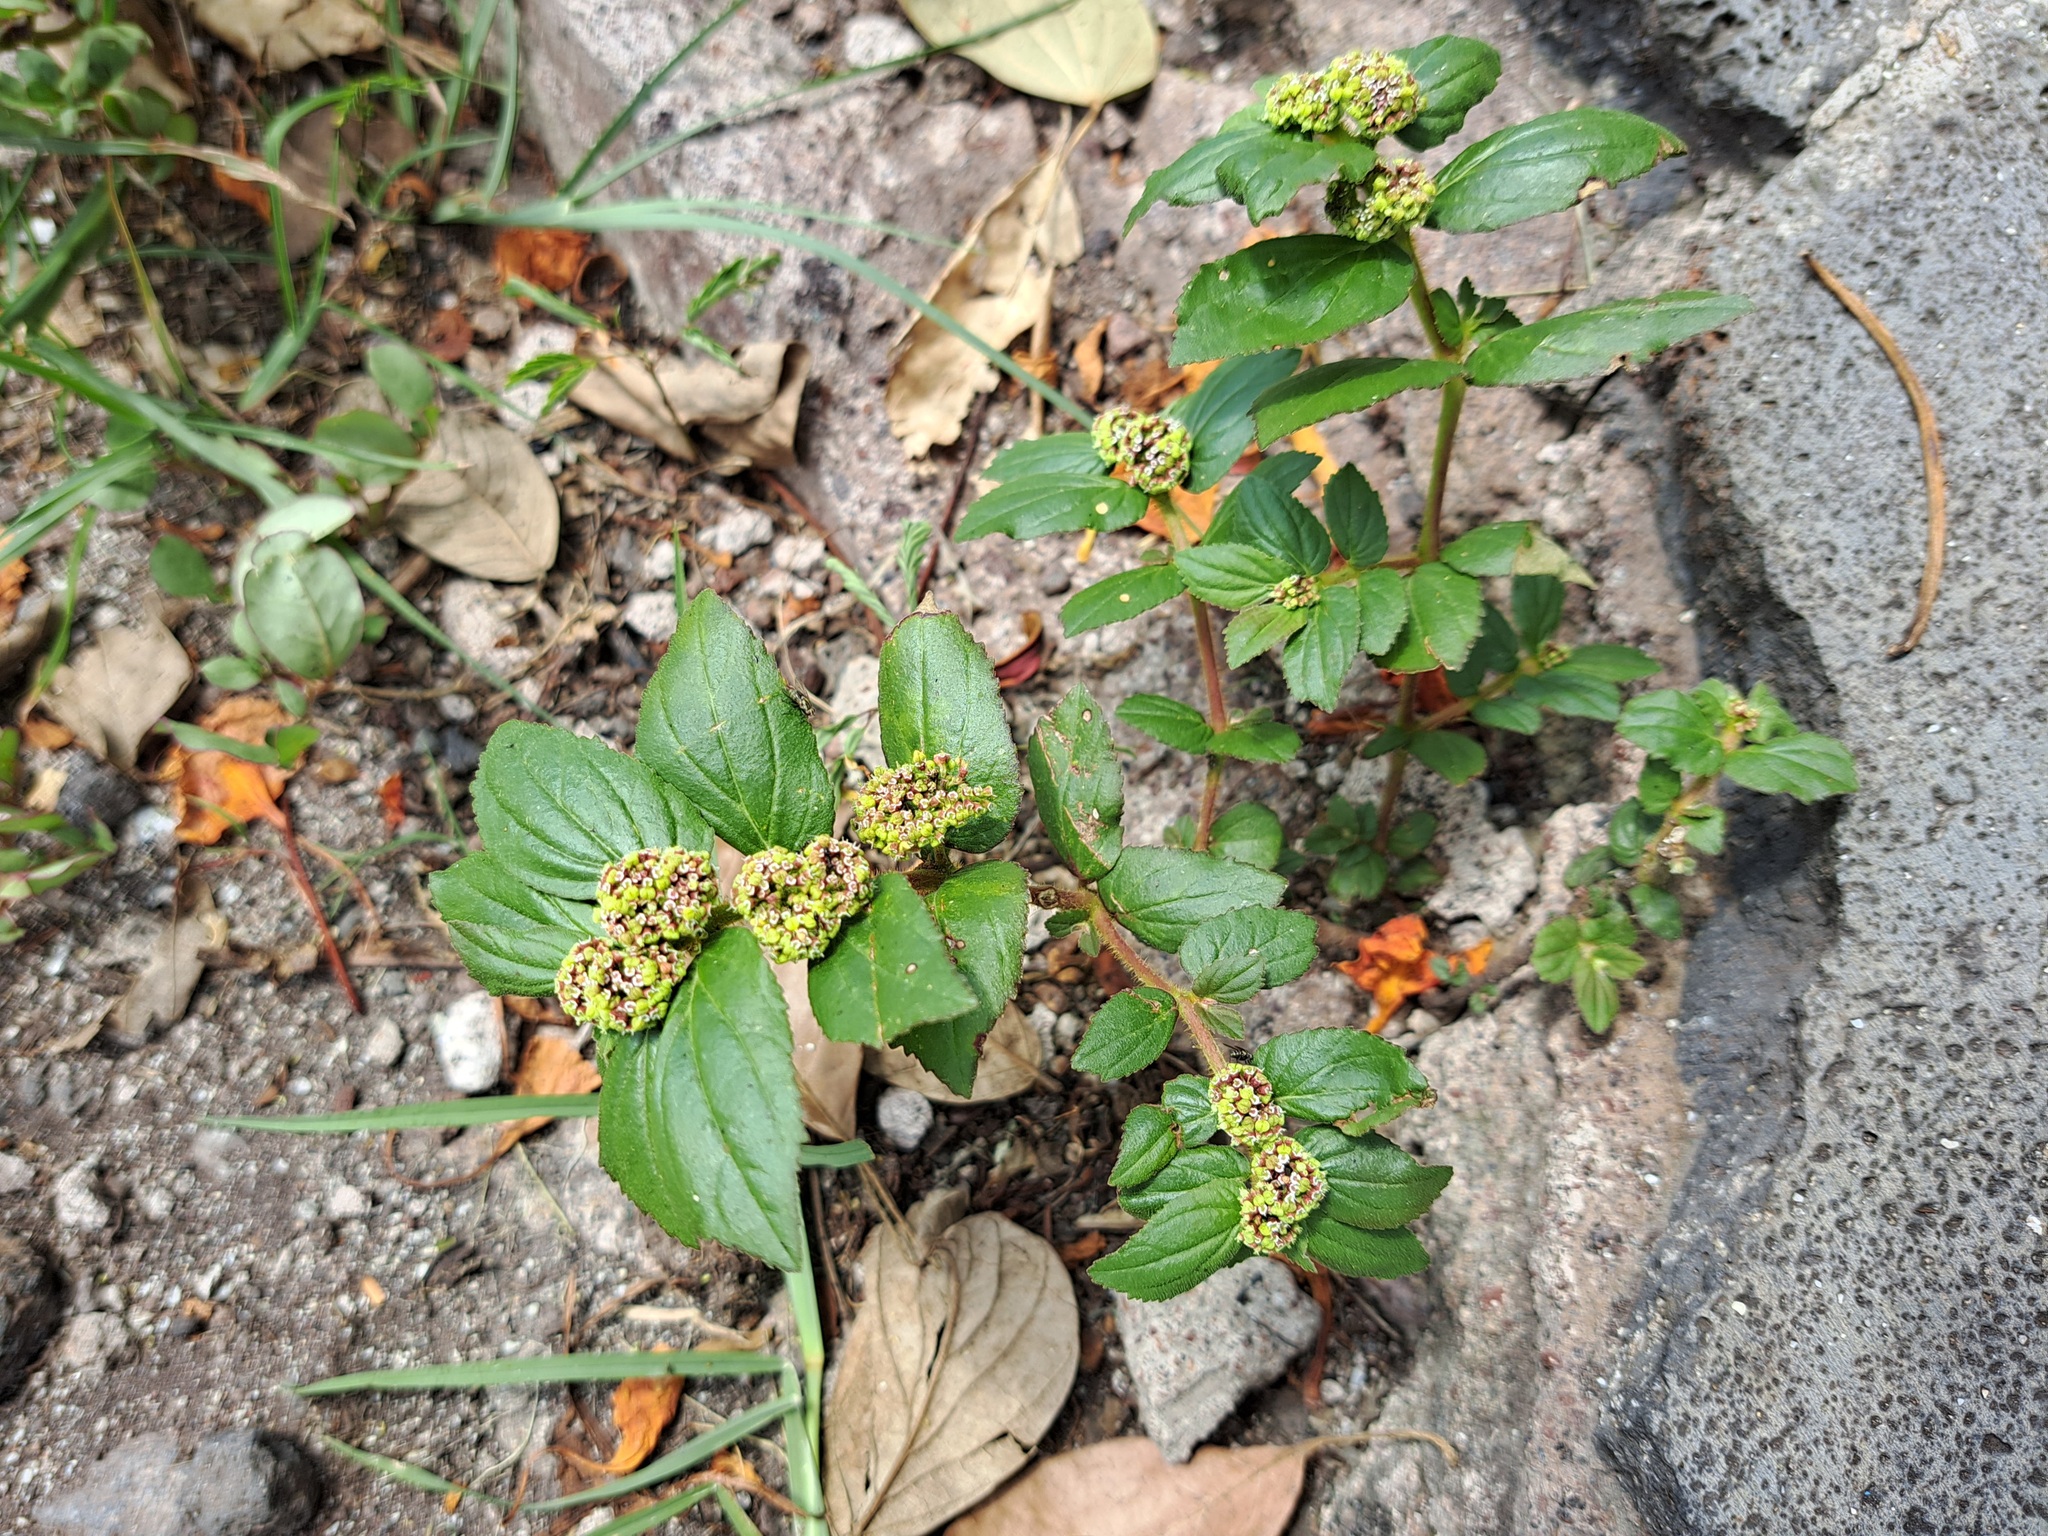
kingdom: Plantae
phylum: Tracheophyta
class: Magnoliopsida
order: Malpighiales
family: Euphorbiaceae
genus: Euphorbia
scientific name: Euphorbia hirta
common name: Pillpod sandmat
